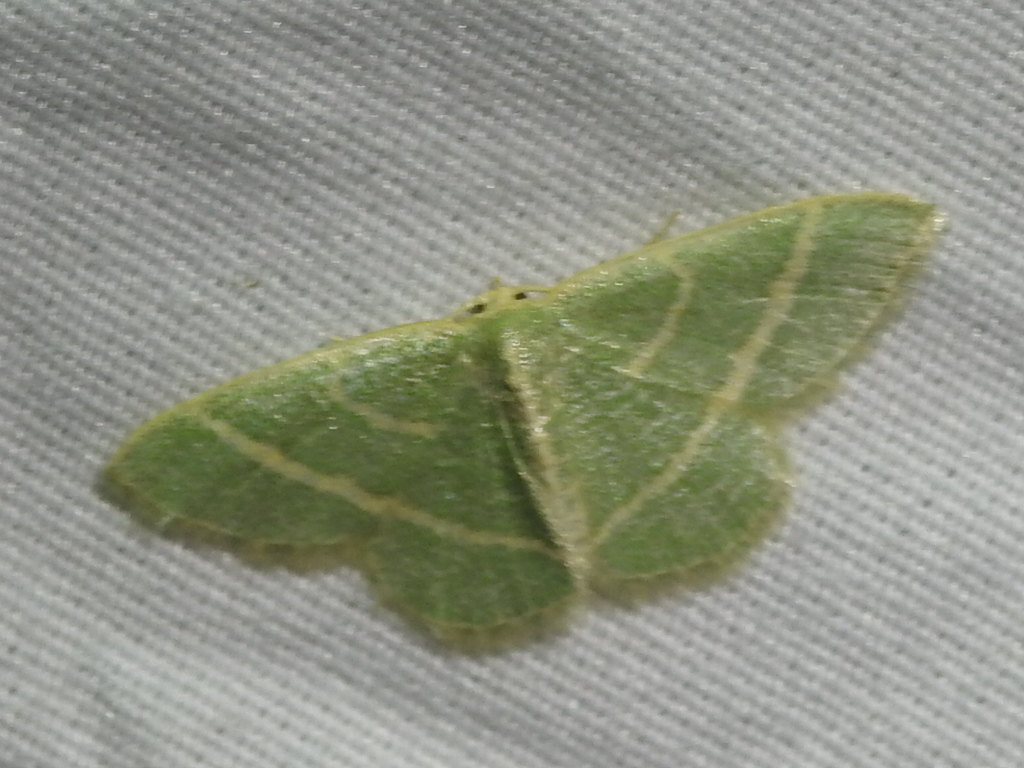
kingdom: Animalia
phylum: Arthropoda
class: Insecta
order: Lepidoptera
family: Geometridae
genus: Chlorochlamys
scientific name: Chlorochlamys chloroleucaria
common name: Blackberry looper
